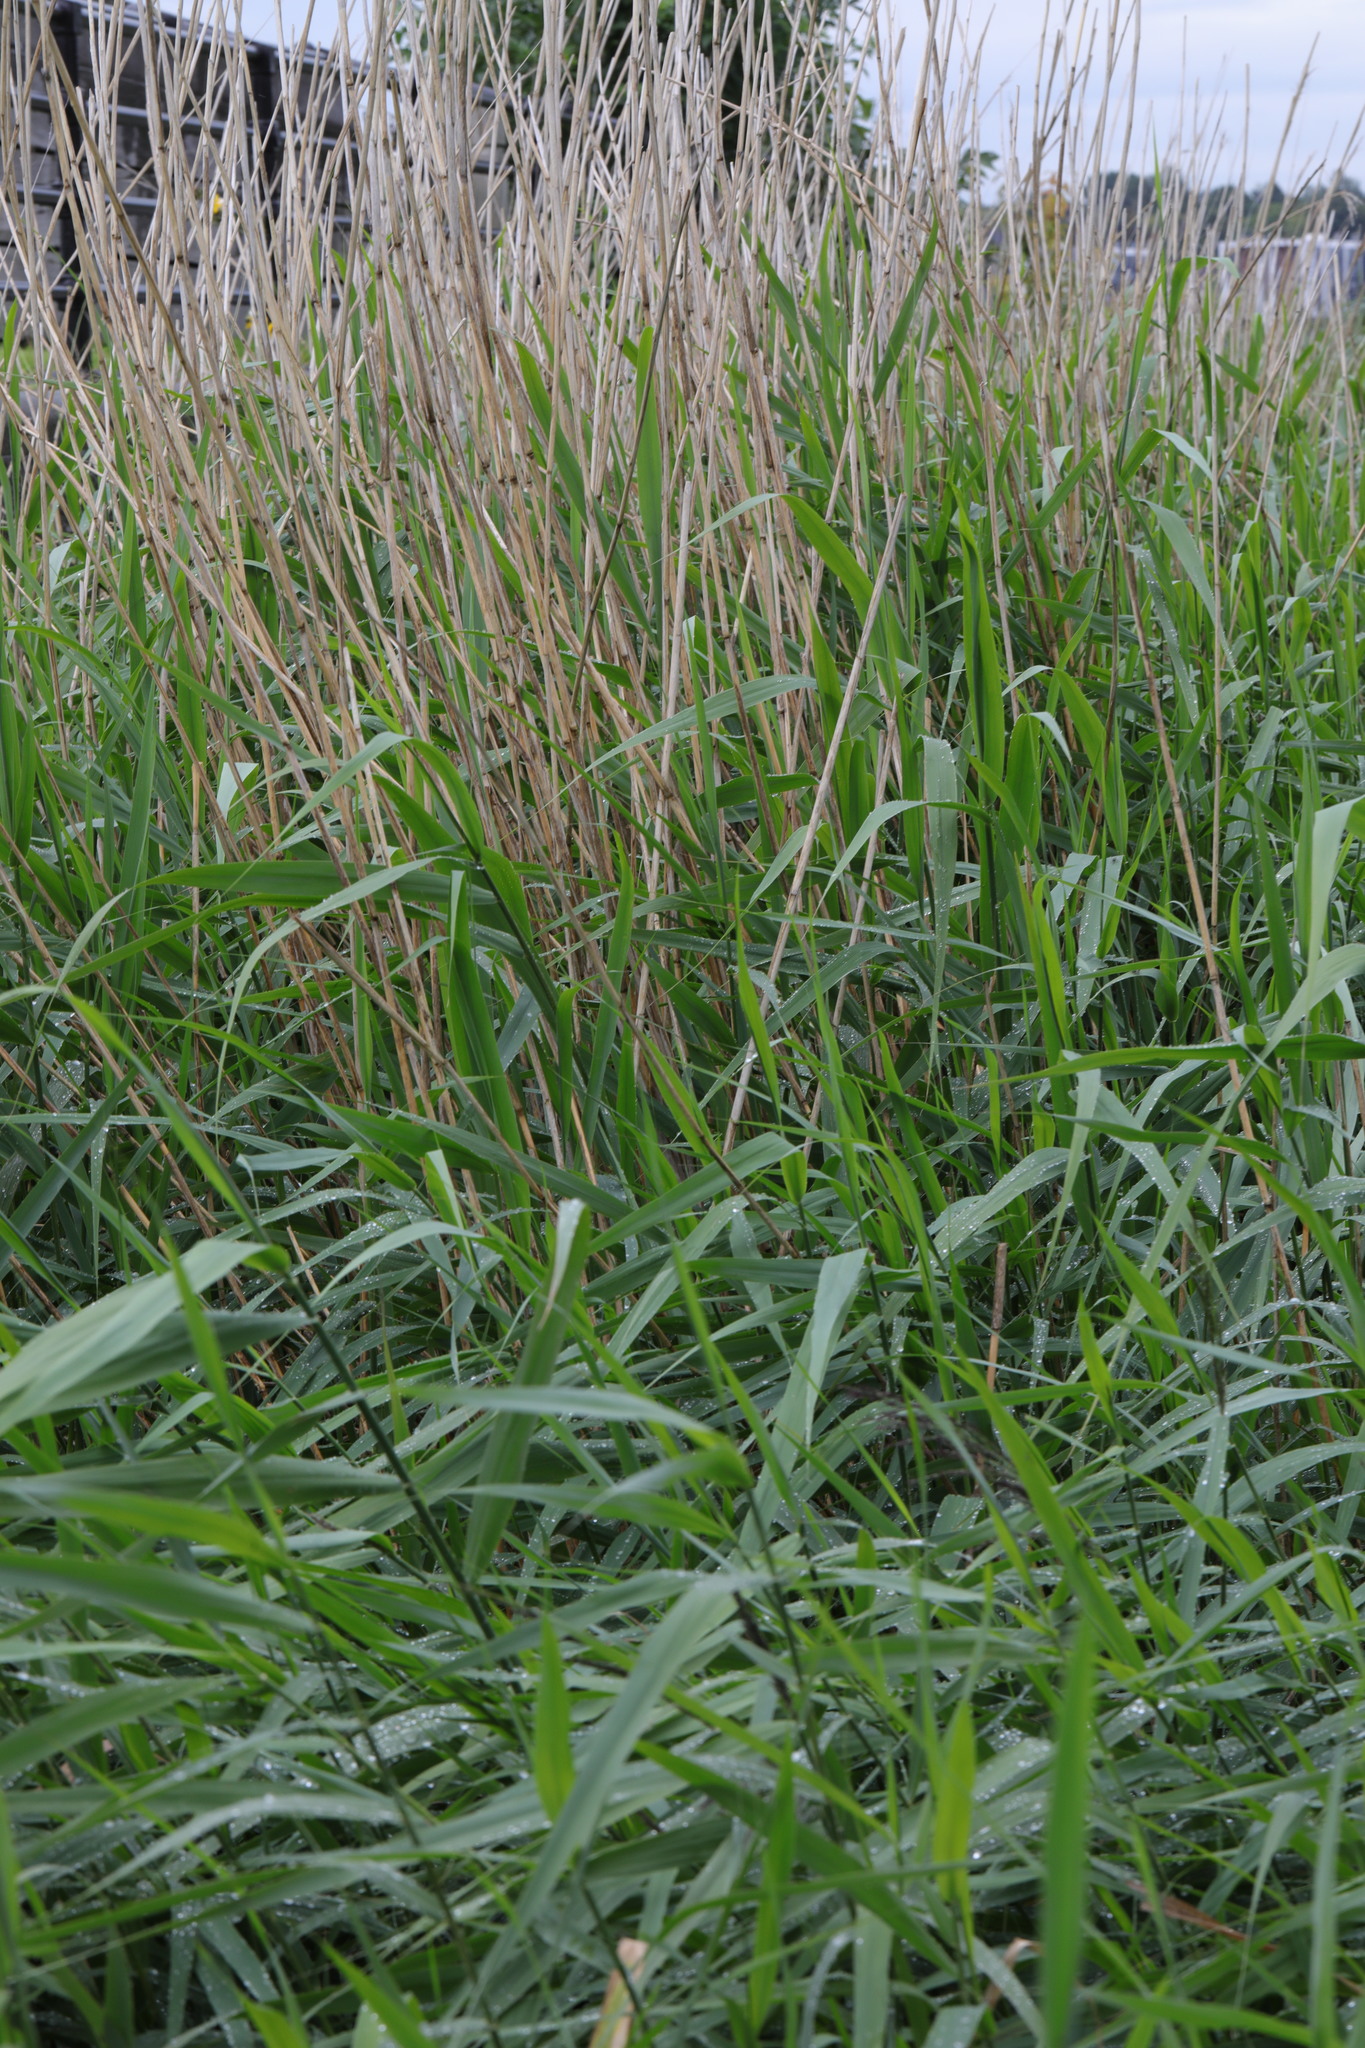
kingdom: Plantae
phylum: Tracheophyta
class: Liliopsida
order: Poales
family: Poaceae
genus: Phragmites
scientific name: Phragmites australis
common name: Common reed
